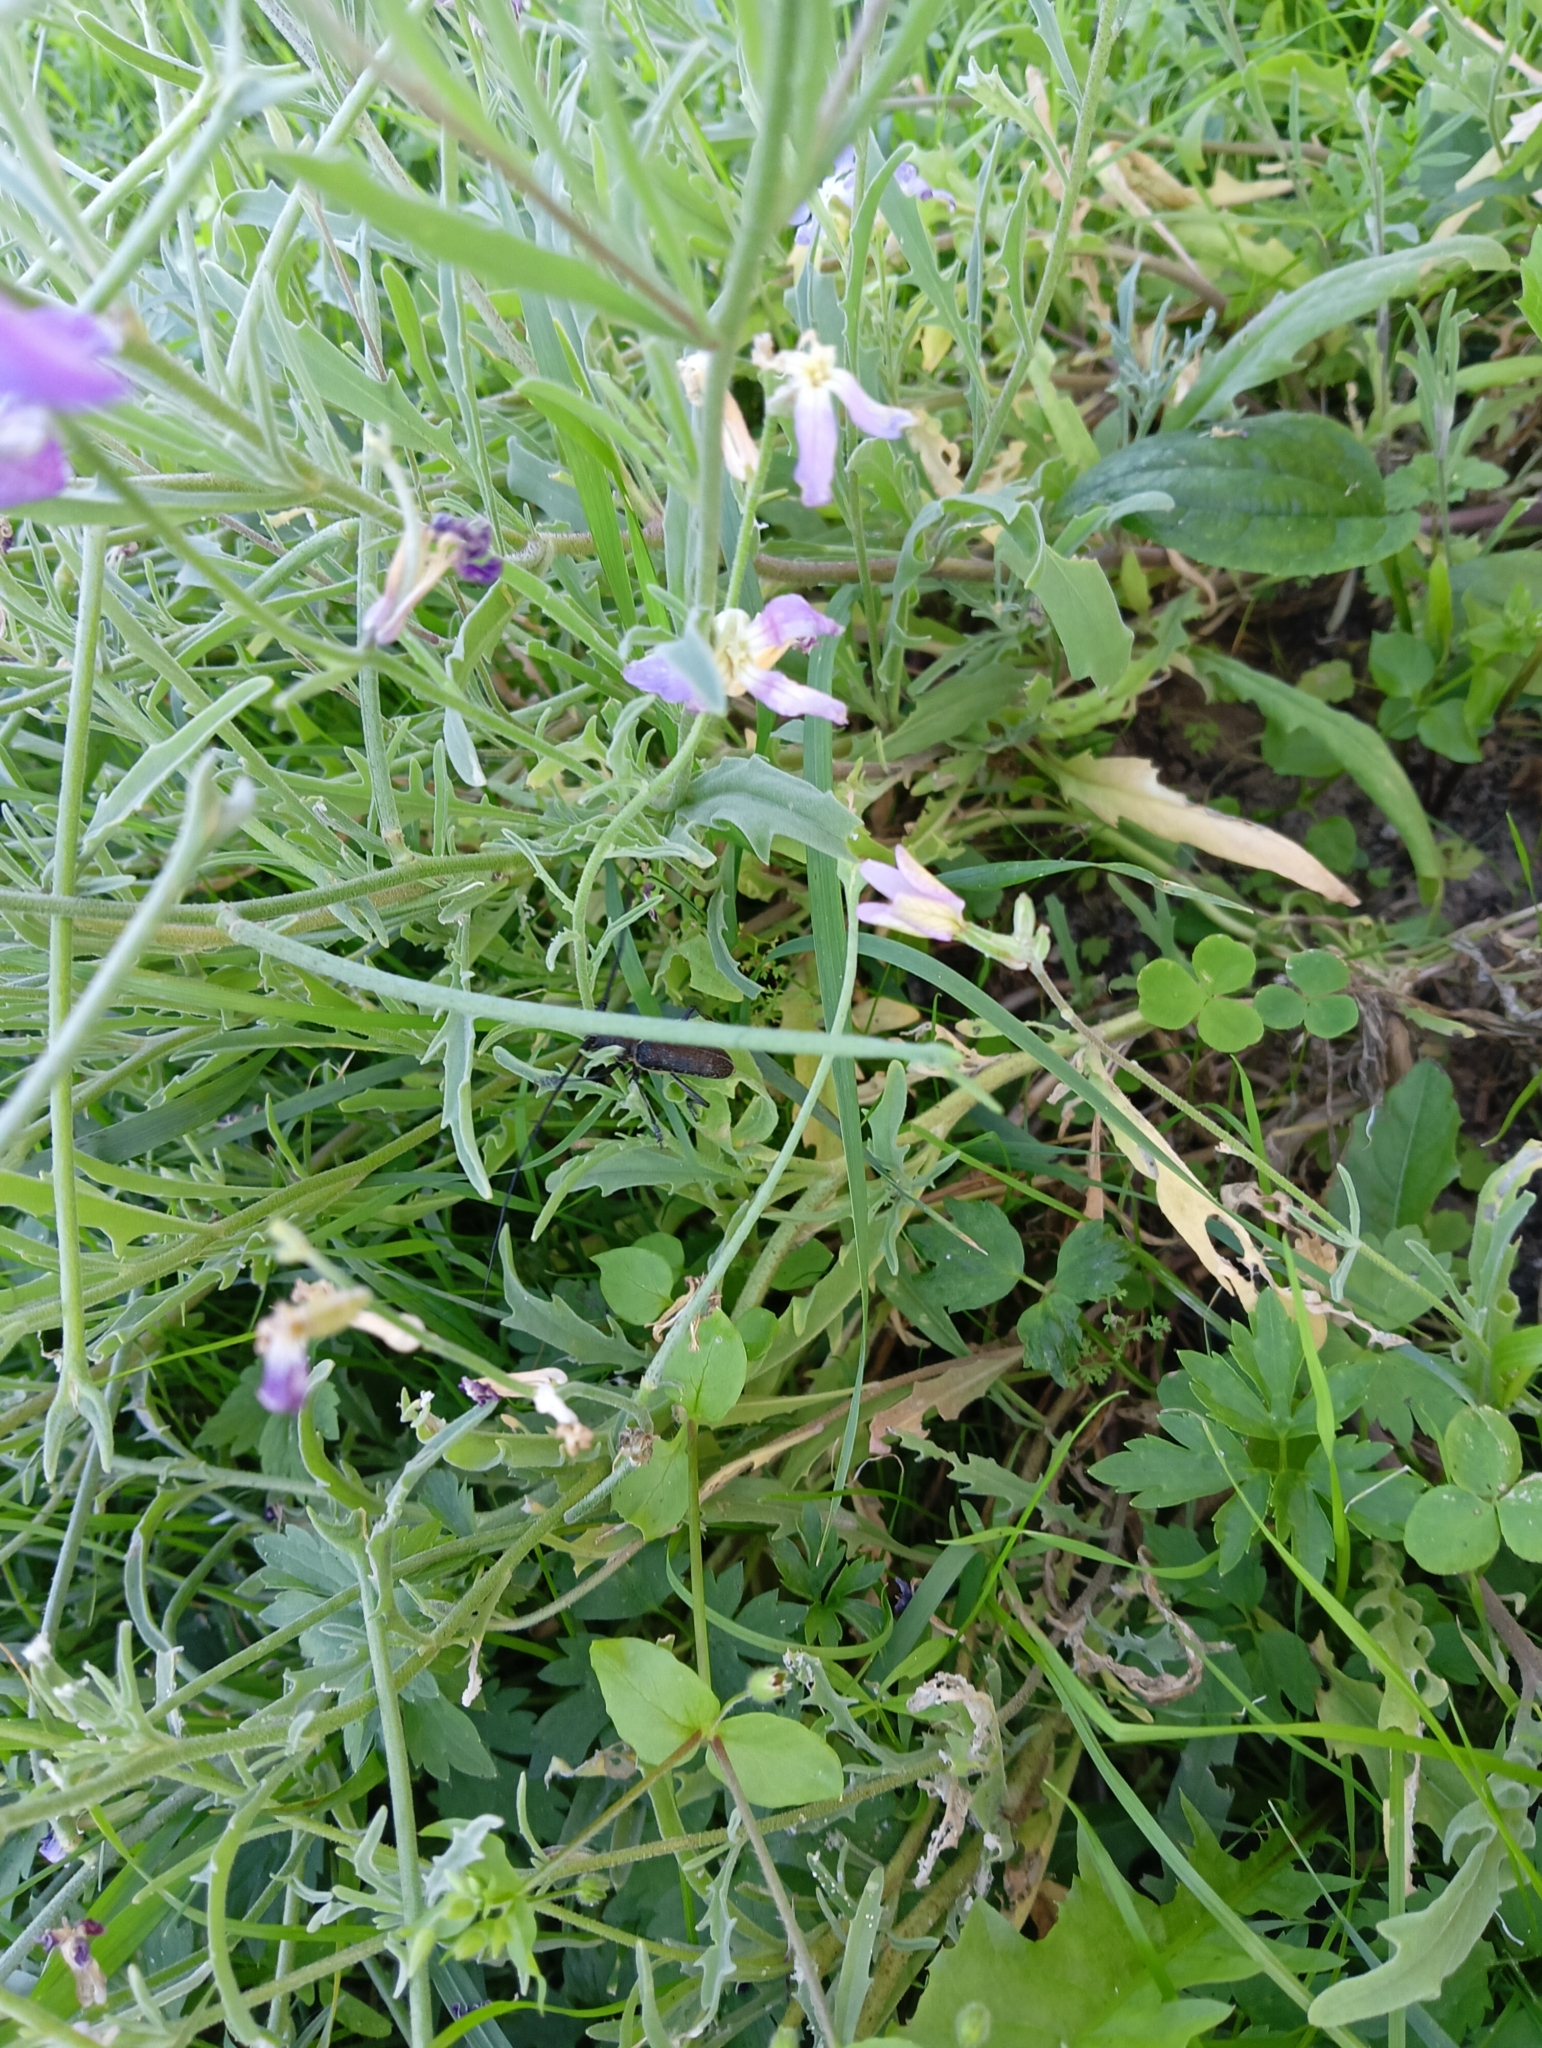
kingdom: Animalia
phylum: Arthropoda
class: Insecta
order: Coleoptera
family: Cerambycidae
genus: Monochamus
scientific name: Monochamus sutor
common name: Pine sawyer
